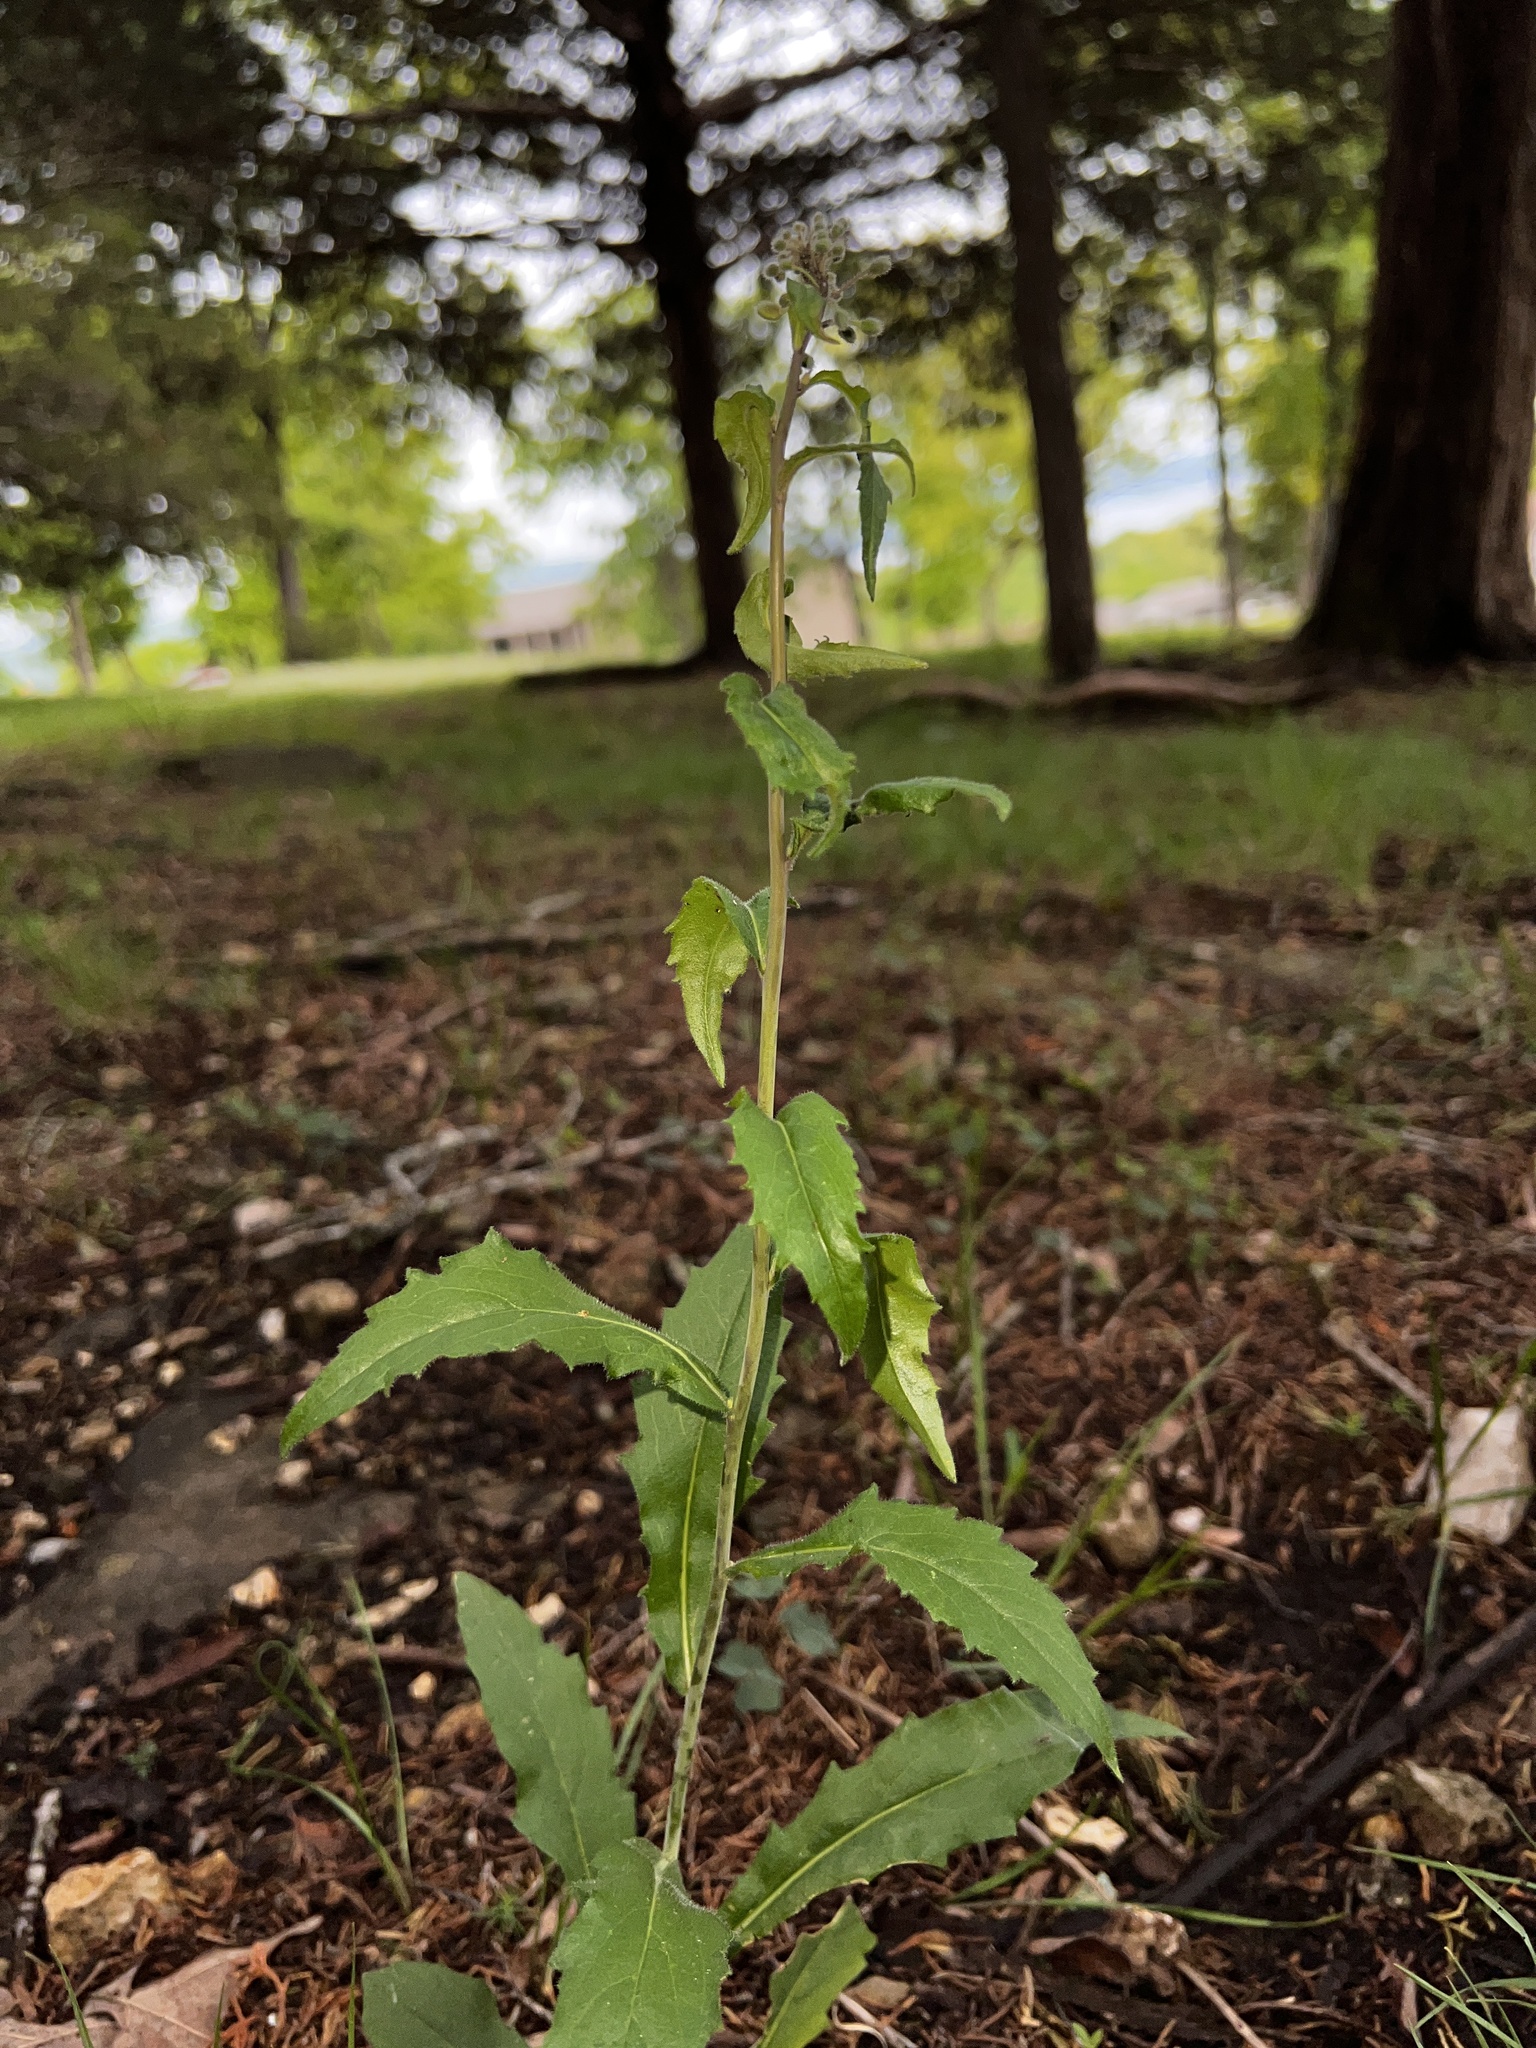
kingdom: Plantae
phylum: Tracheophyta
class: Magnoliopsida
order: Brassicales
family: Brassicaceae
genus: Borodinia
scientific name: Borodinia canadensis
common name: Sicklepod
